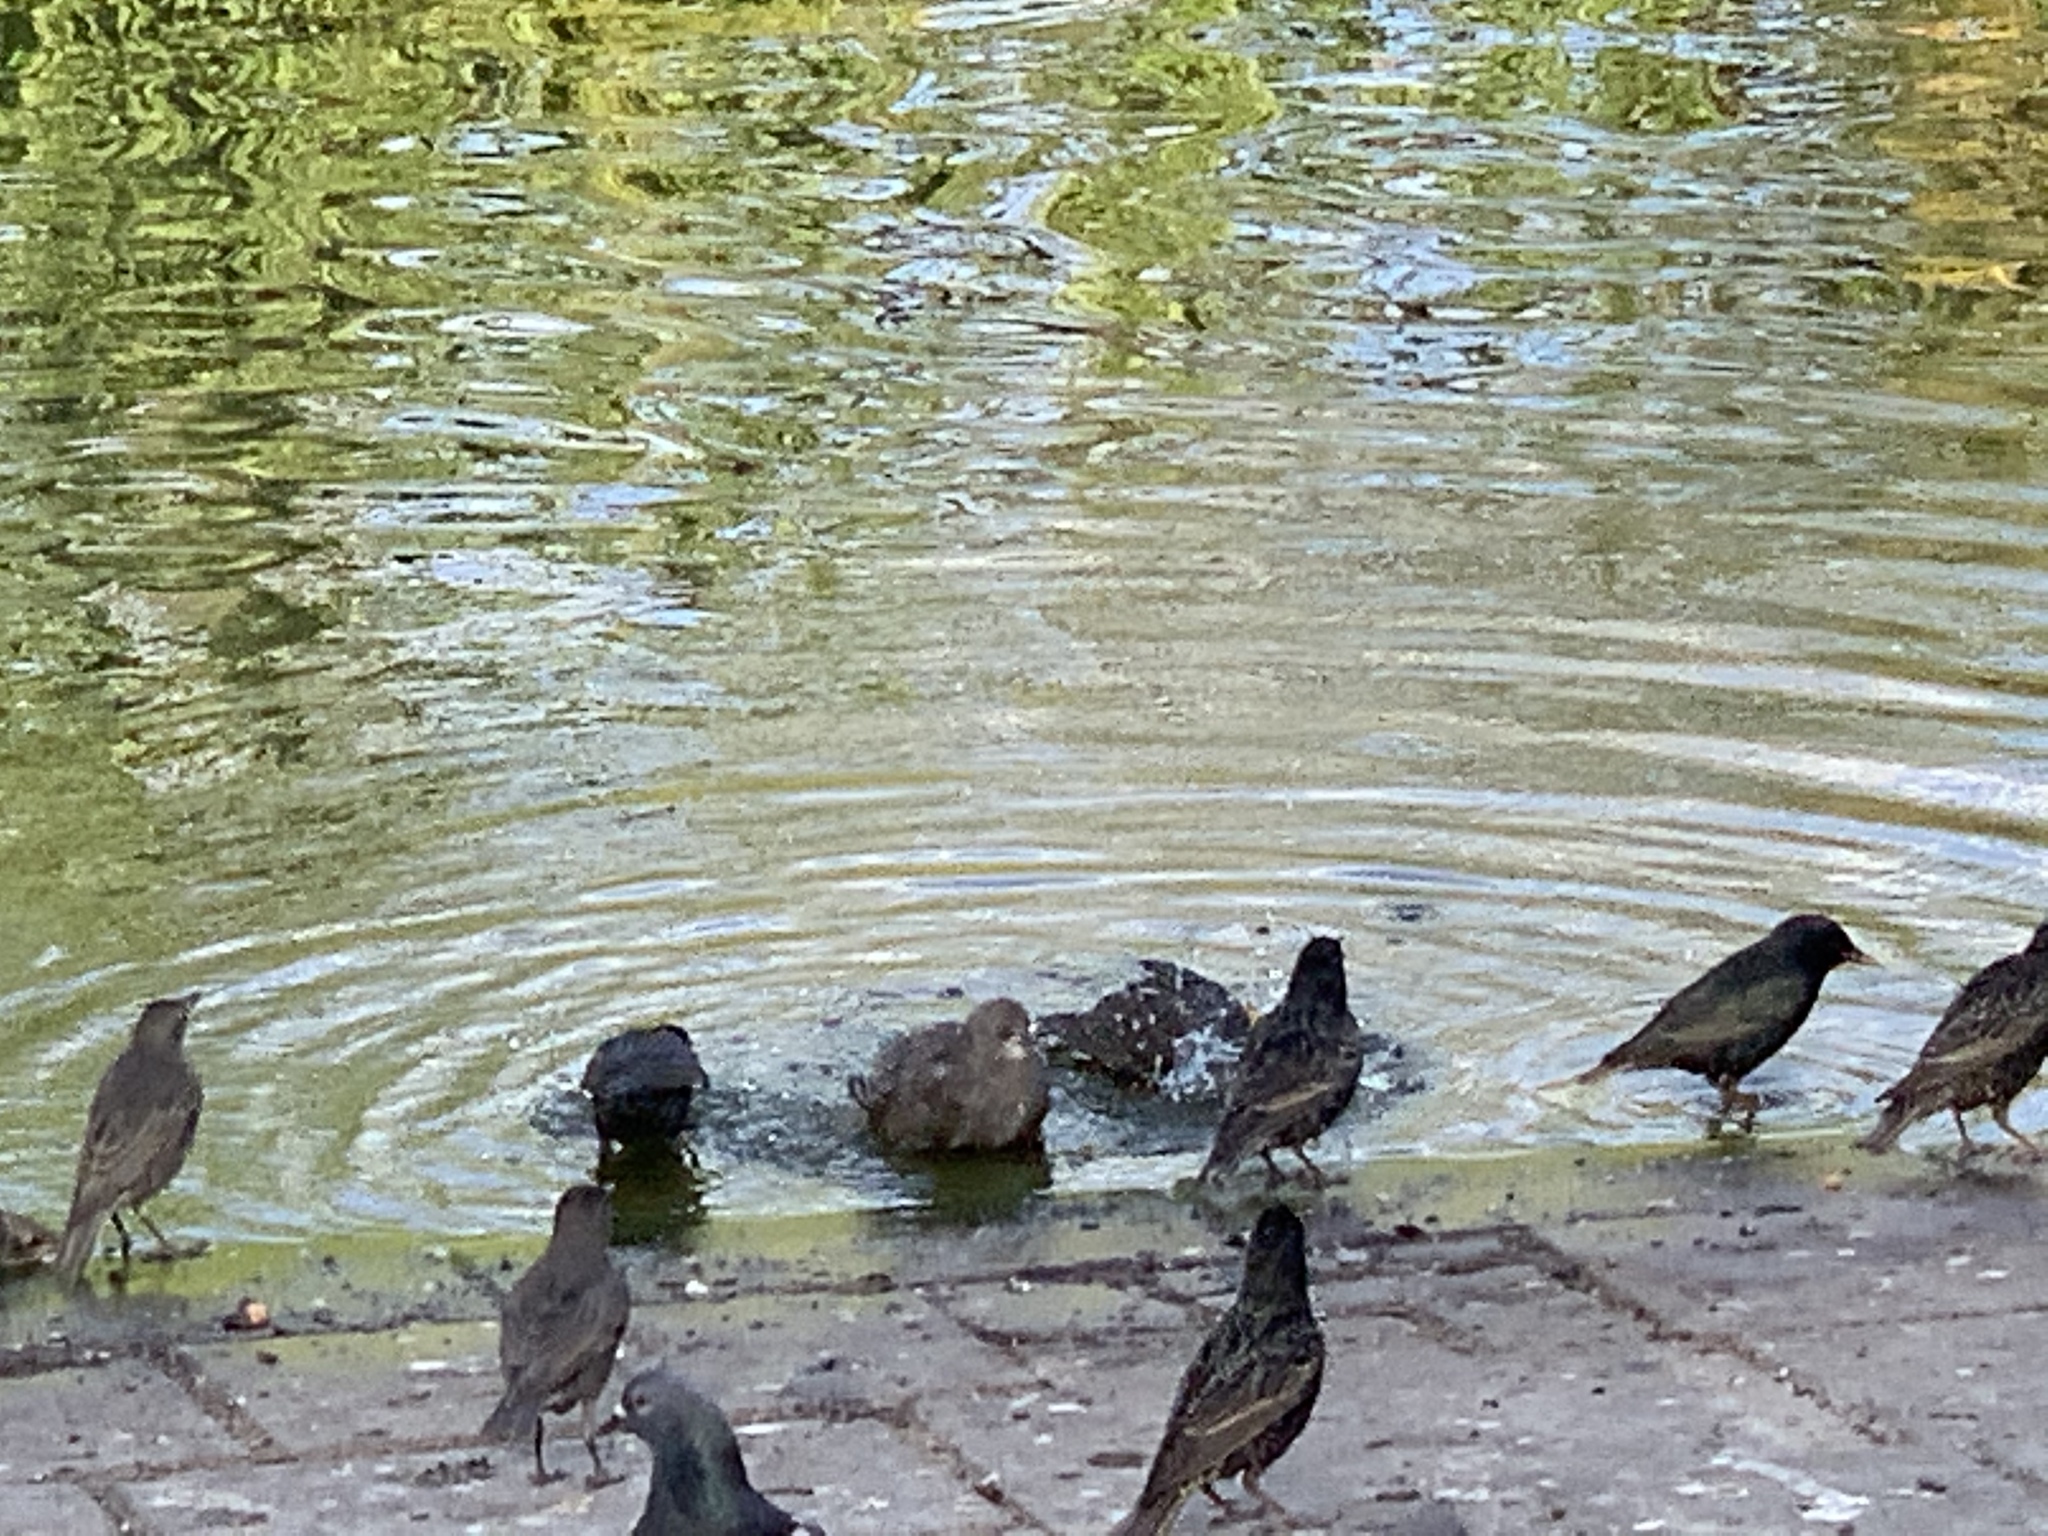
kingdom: Animalia
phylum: Chordata
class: Aves
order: Passeriformes
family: Sturnidae
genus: Sturnus
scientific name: Sturnus vulgaris
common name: Common starling
